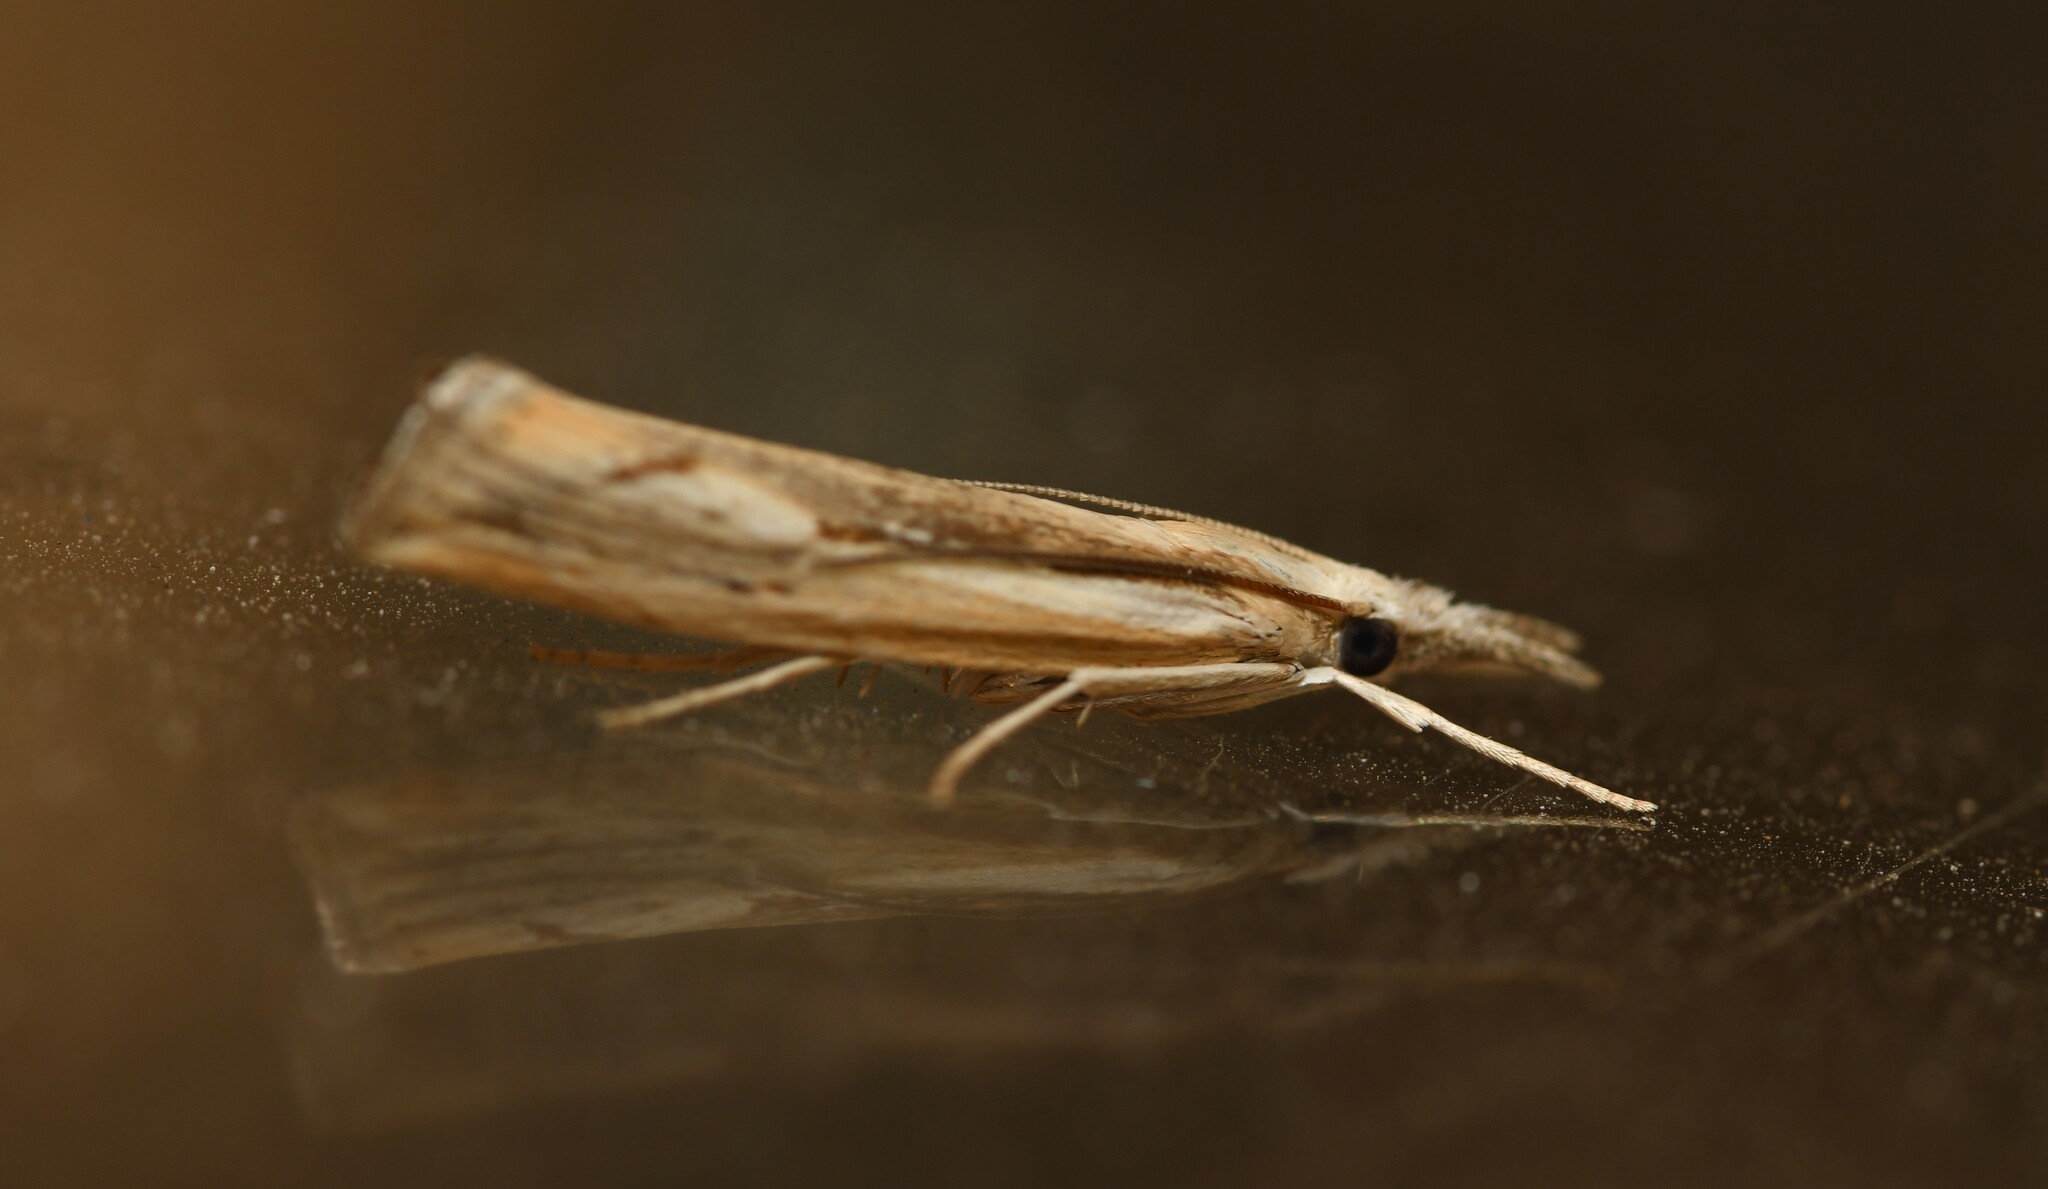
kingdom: Animalia
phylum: Arthropoda
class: Insecta
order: Lepidoptera
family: Crambidae
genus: Agriphila
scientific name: Agriphila trabeatellus
